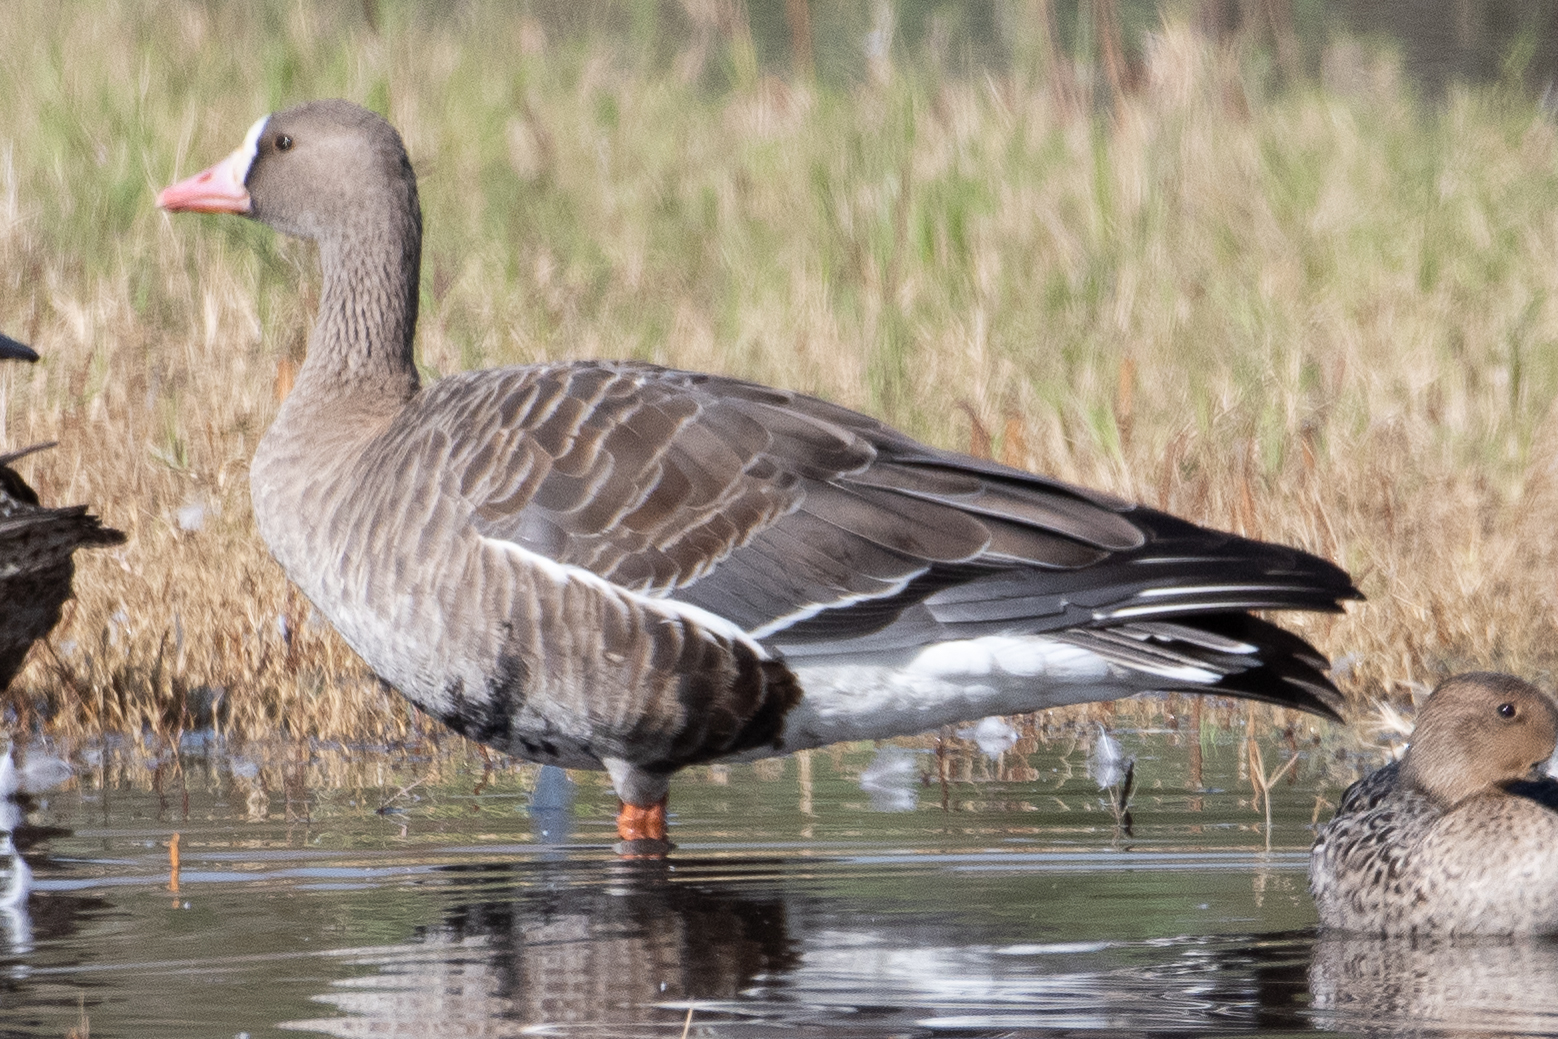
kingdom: Animalia
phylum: Chordata
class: Aves
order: Anseriformes
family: Anatidae
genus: Anser
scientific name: Anser albifrons
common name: Greater white-fronted goose
